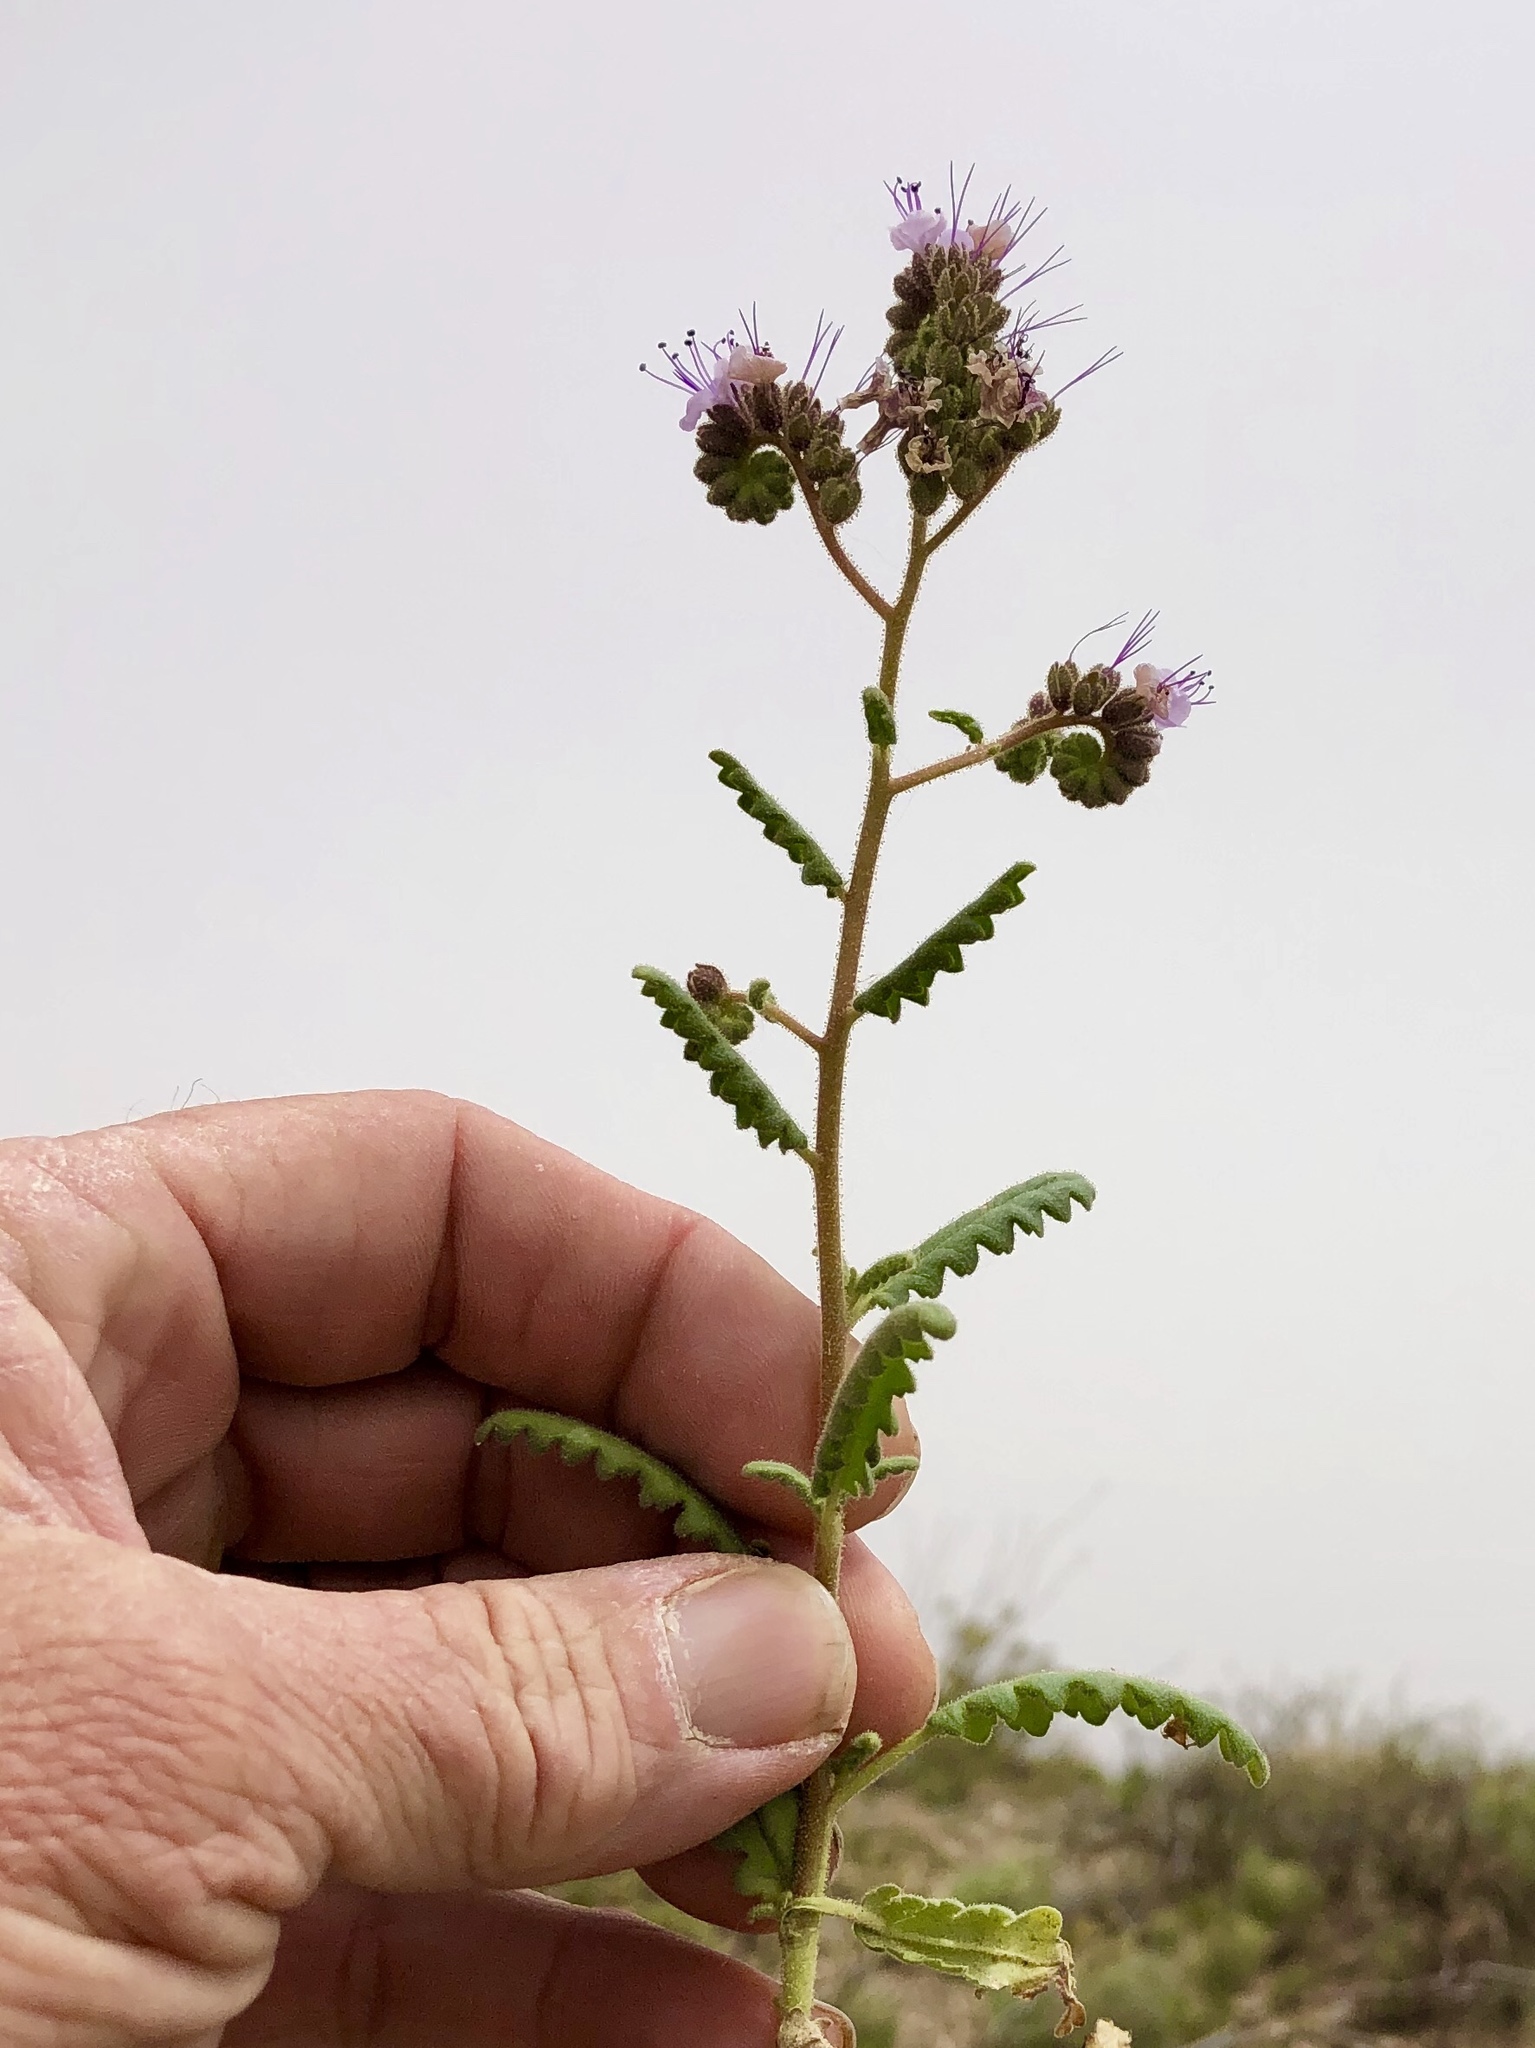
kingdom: Plantae
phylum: Tracheophyta
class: Magnoliopsida
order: Boraginales
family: Hydrophyllaceae
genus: Phacelia
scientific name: Phacelia integrifolia
